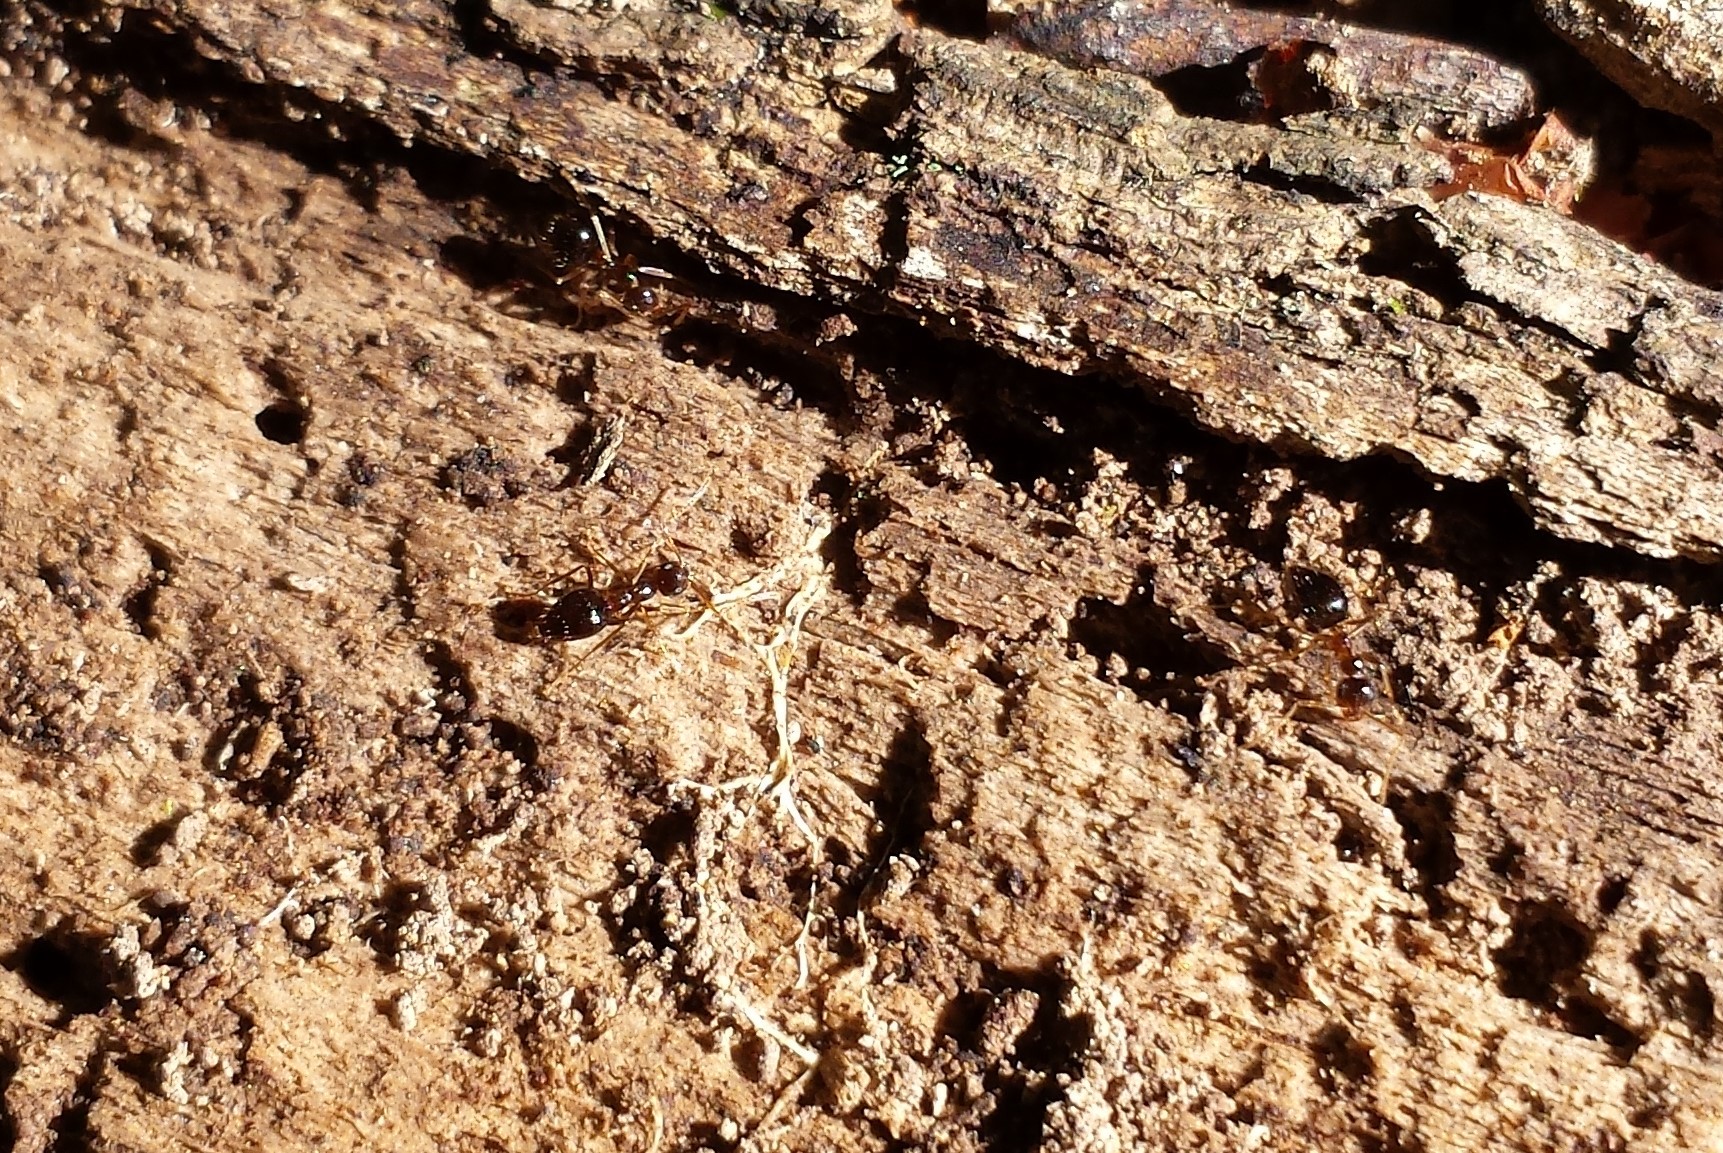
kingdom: Animalia
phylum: Arthropoda
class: Insecta
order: Hymenoptera
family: Formicidae
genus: Prenolepis
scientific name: Prenolepis imparis
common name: Small honey ant
